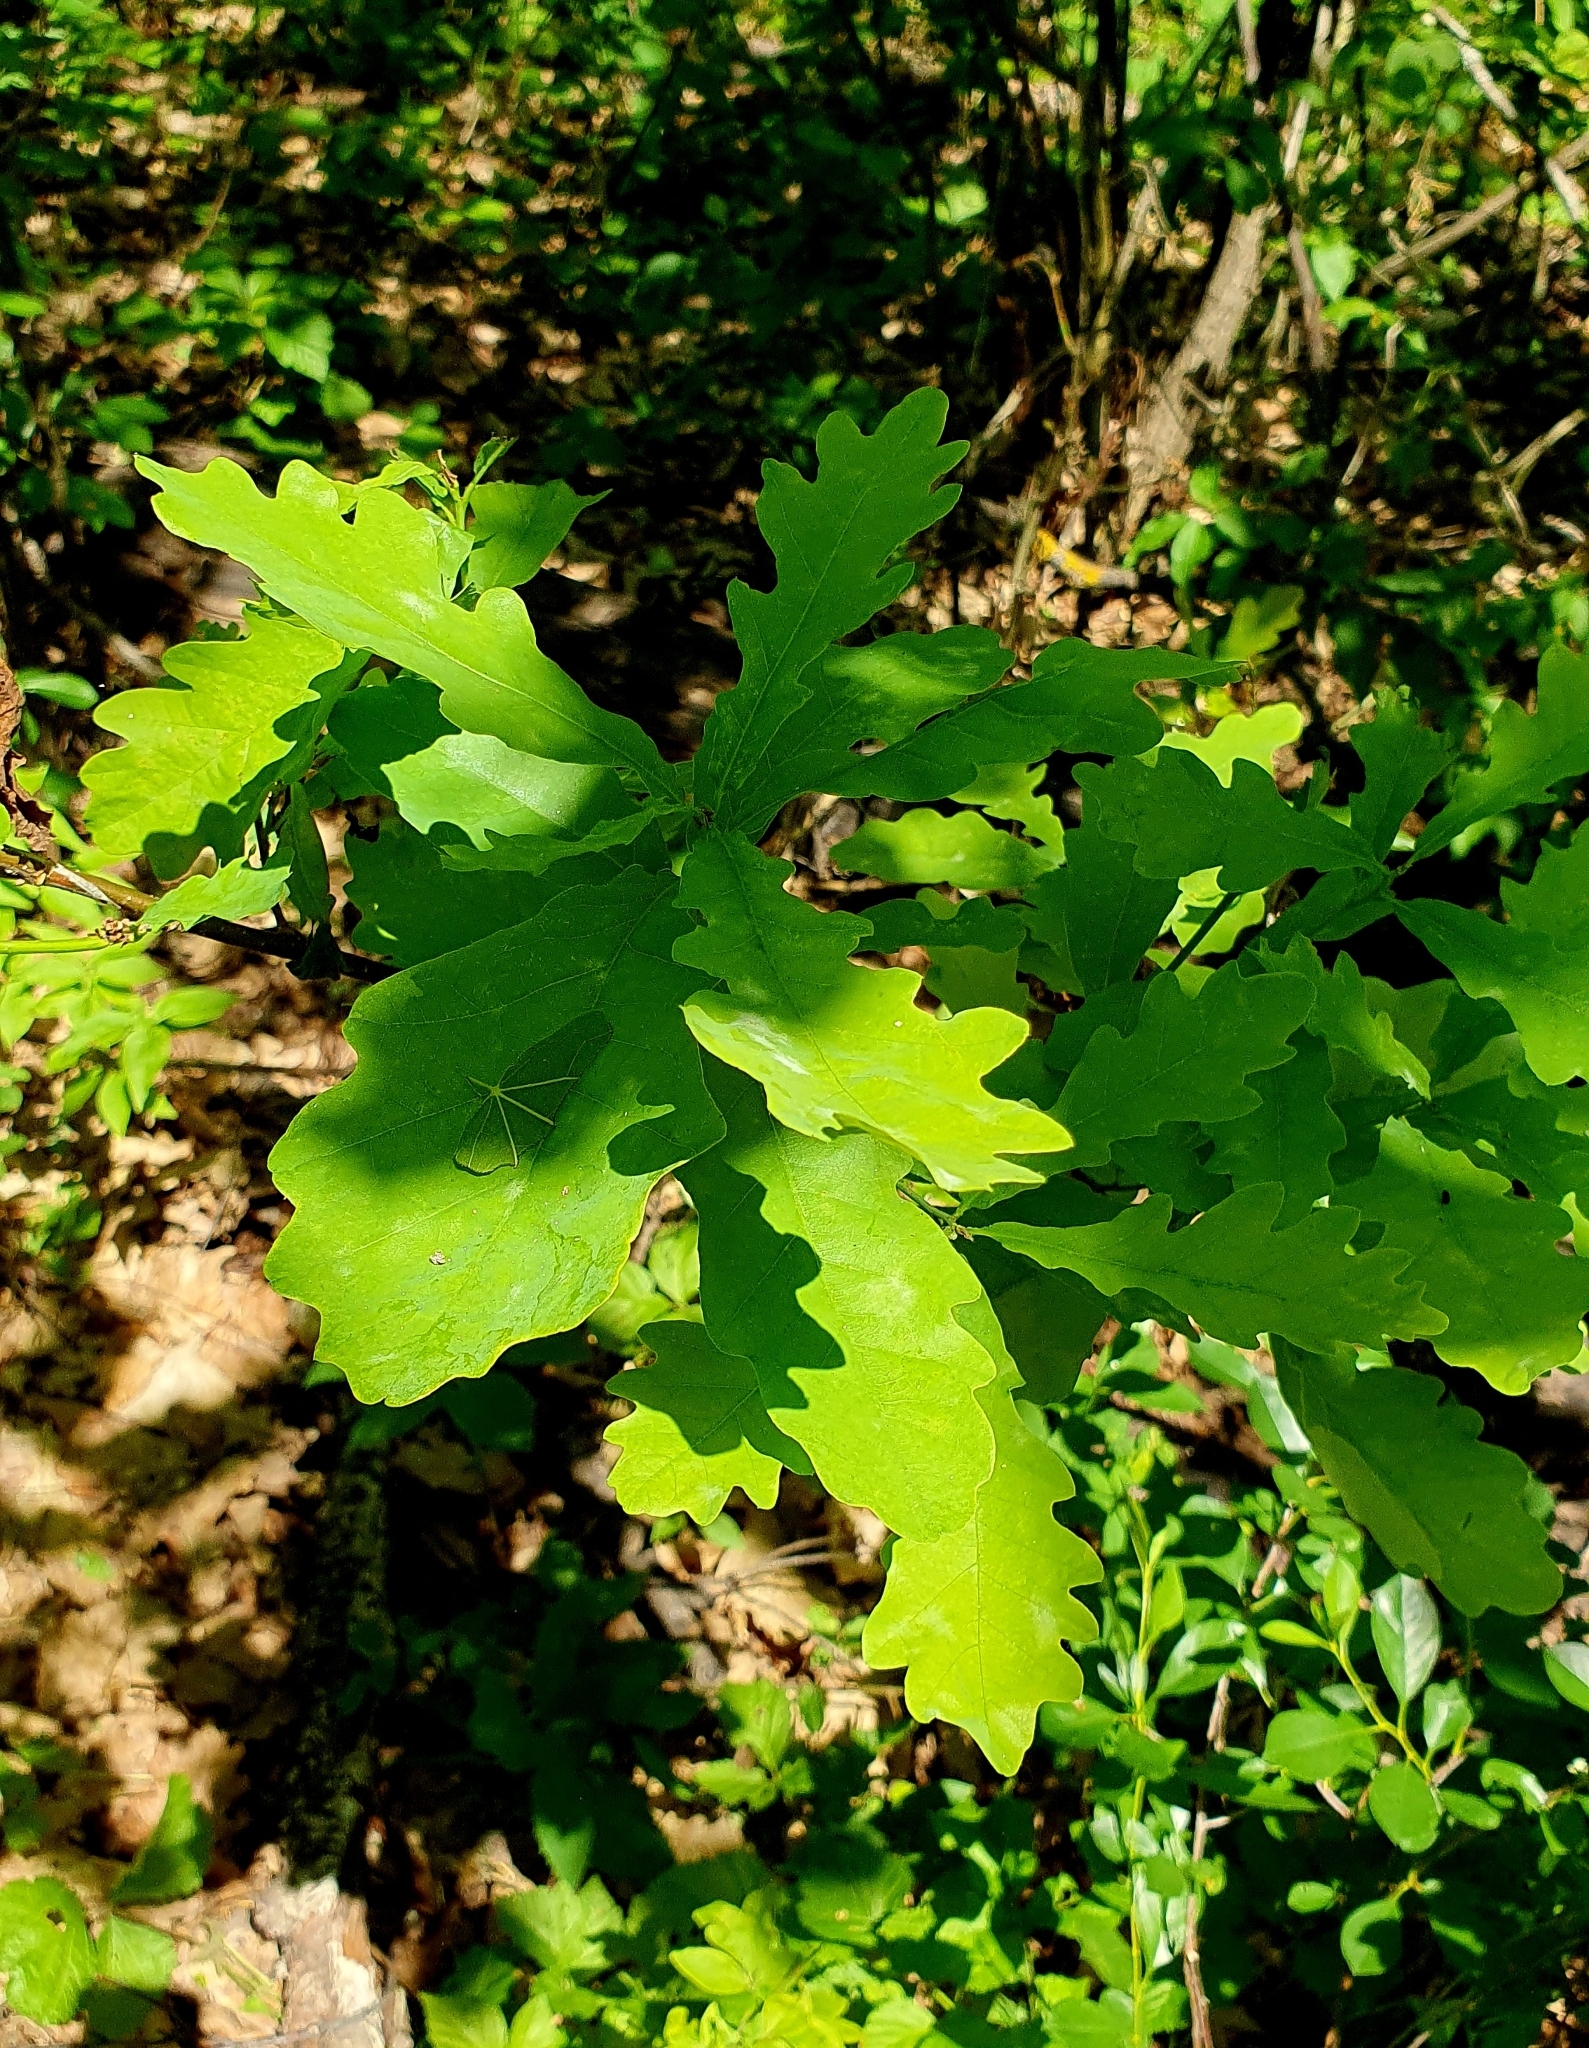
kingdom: Plantae
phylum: Tracheophyta
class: Magnoliopsida
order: Fagales
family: Fagaceae
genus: Quercus
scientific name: Quercus robur
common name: Pedunculate oak
